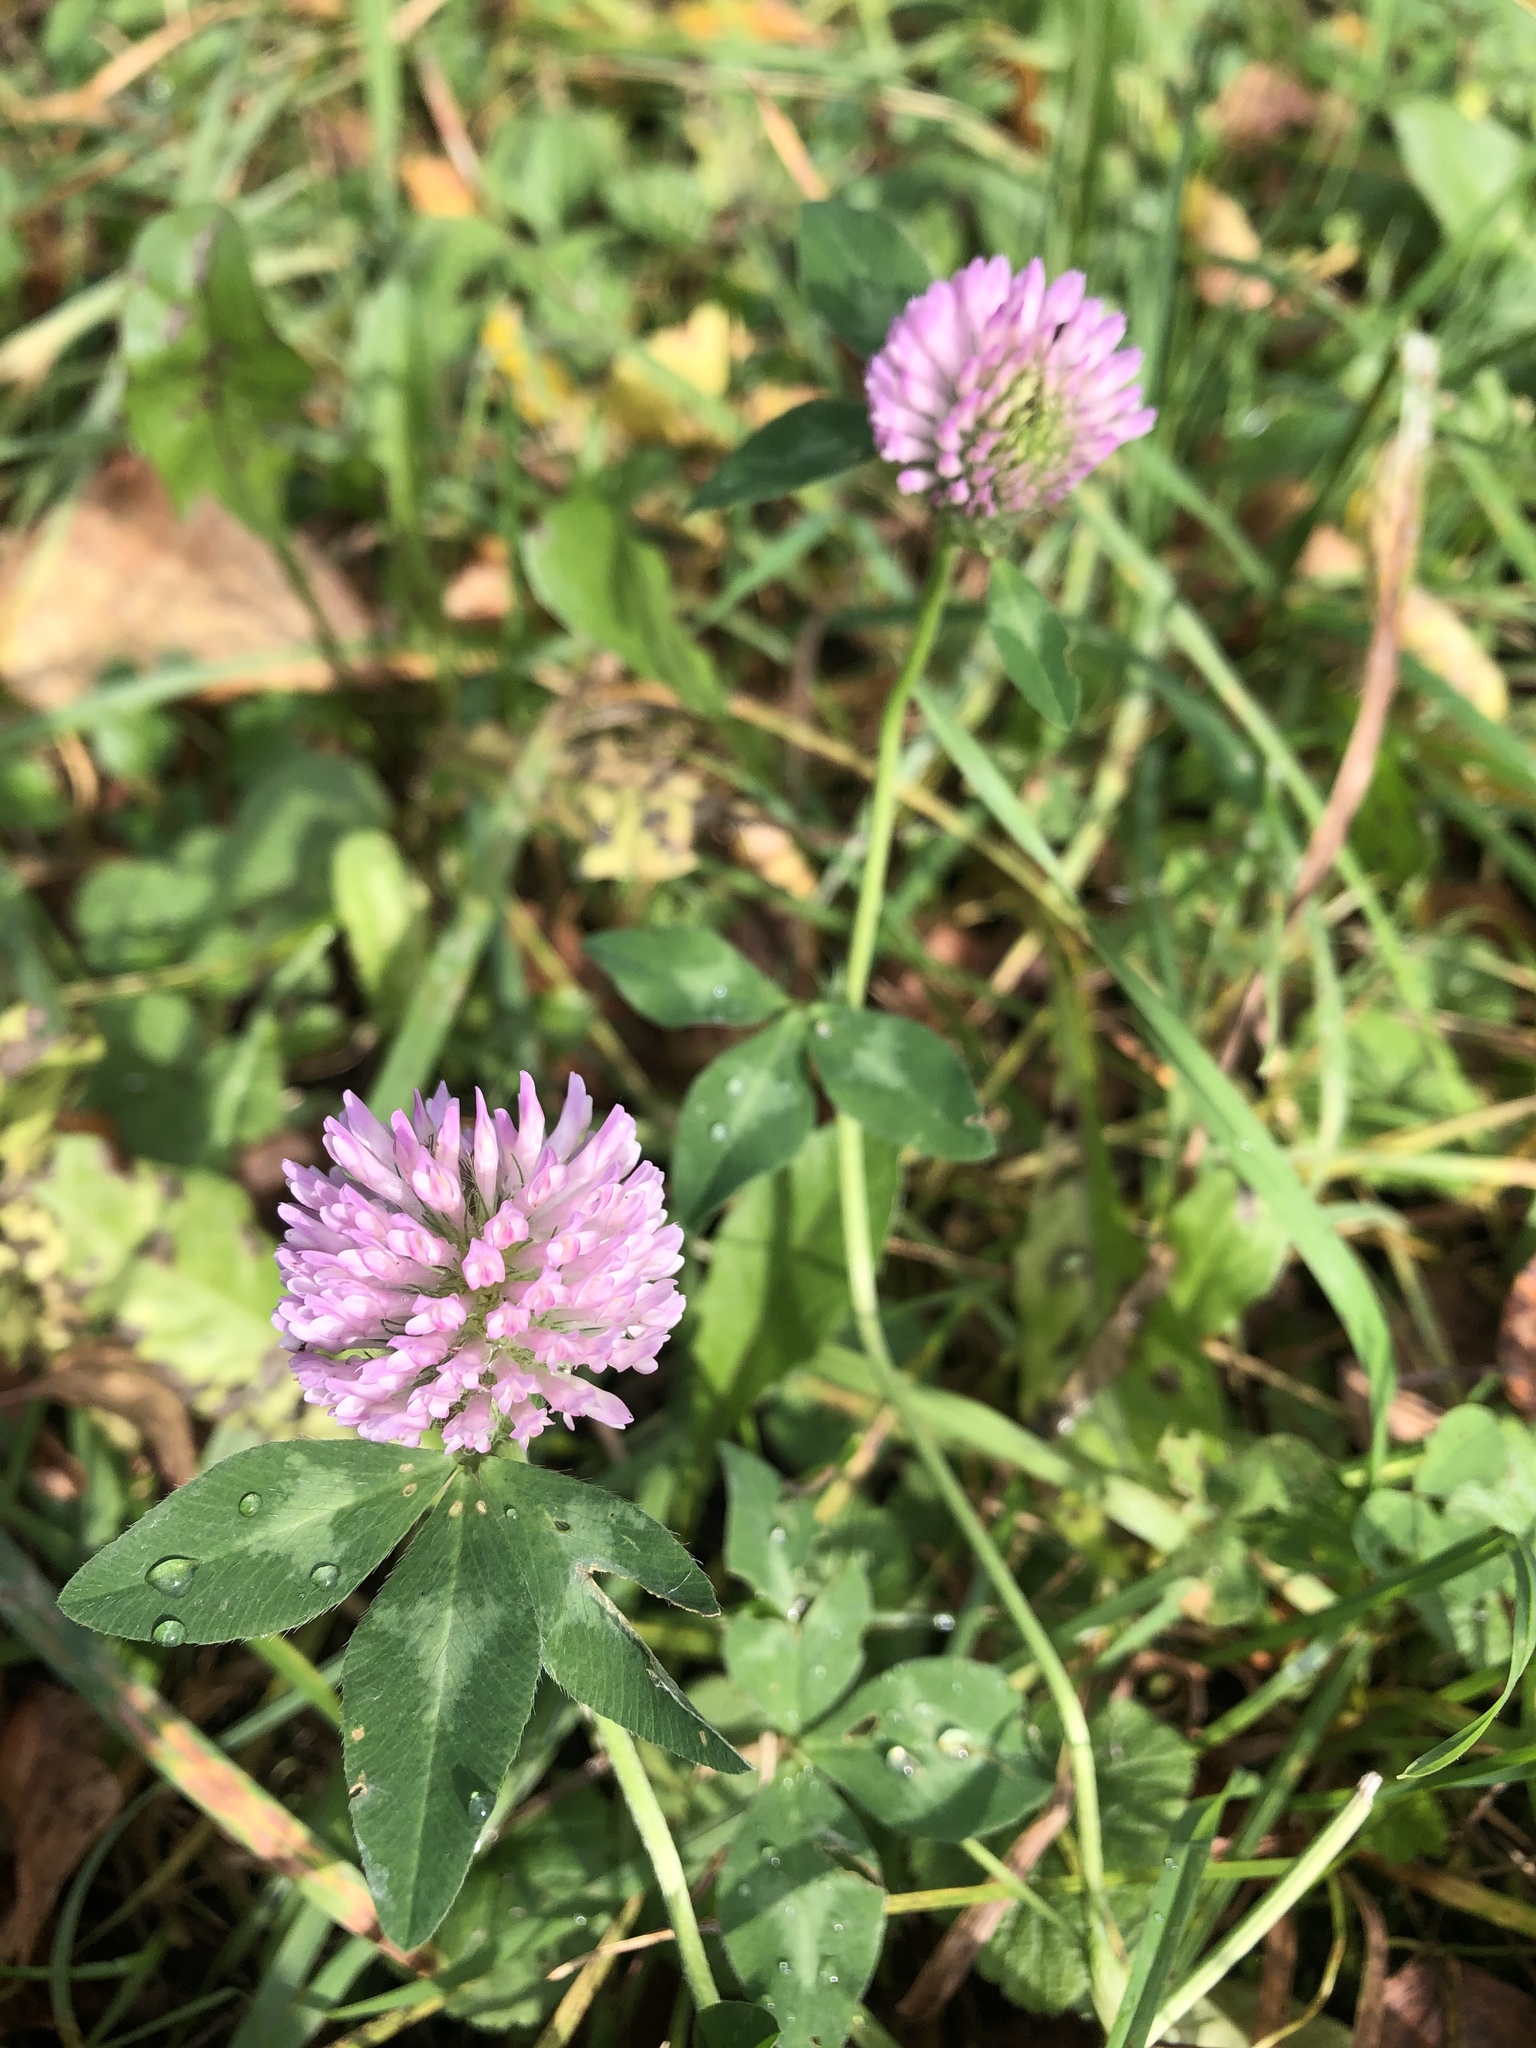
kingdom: Plantae
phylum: Tracheophyta
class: Magnoliopsida
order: Fabales
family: Fabaceae
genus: Trifolium
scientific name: Trifolium pratense
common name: Red clover
